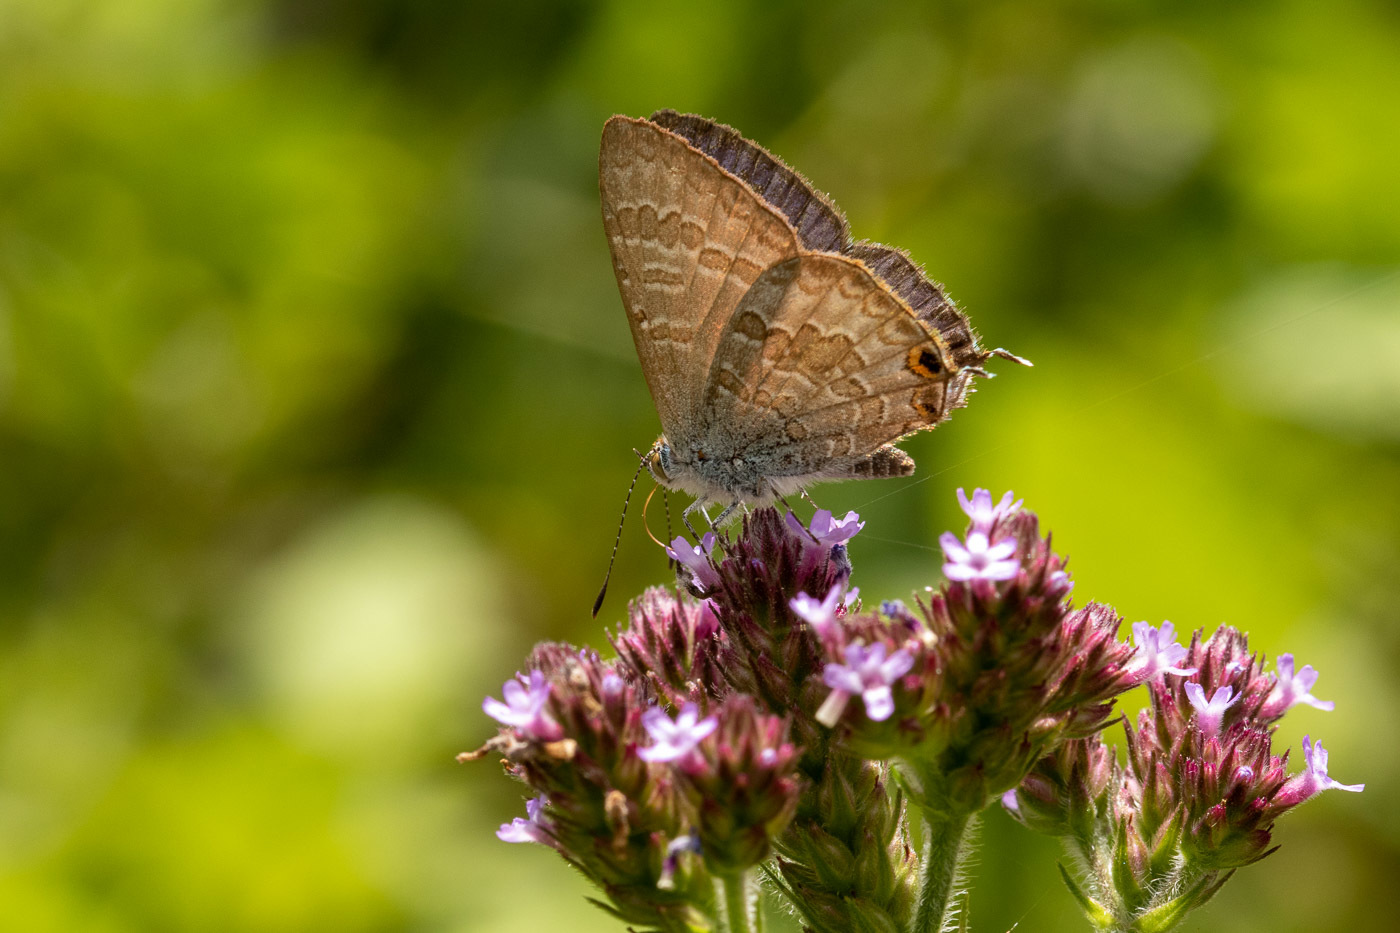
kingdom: Animalia
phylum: Arthropoda
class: Insecta
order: Lepidoptera
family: Lycaenidae
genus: Catopyrops
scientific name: Catopyrops florinda
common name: Speckled line-blue
